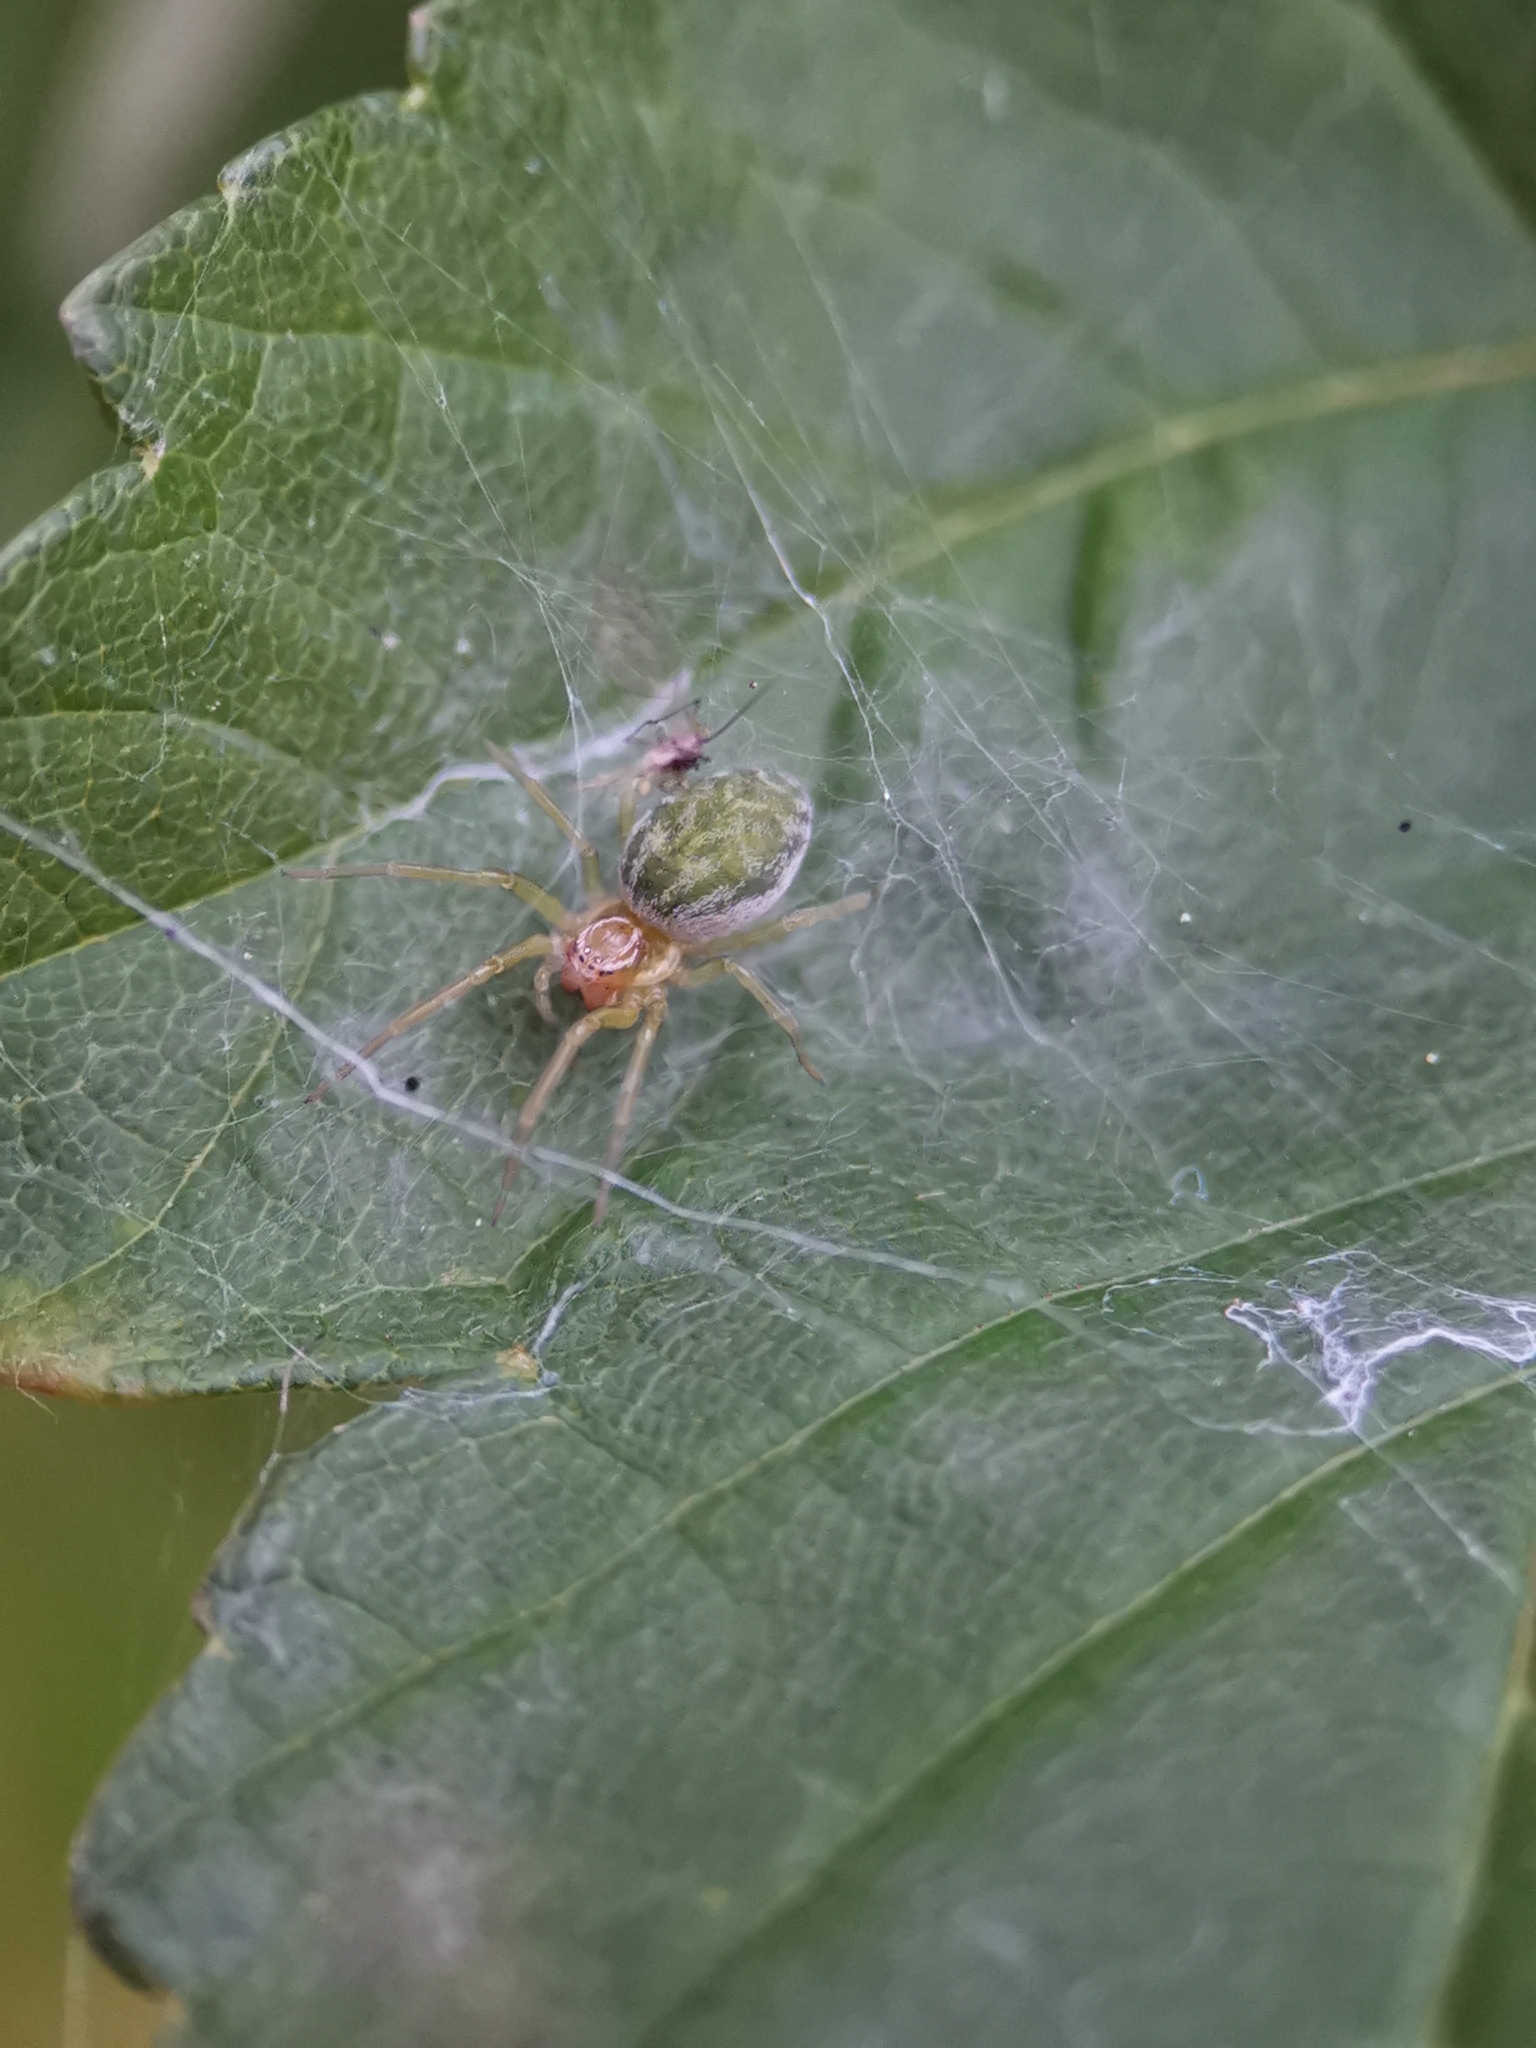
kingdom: Animalia
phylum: Arthropoda
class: Arachnida
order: Araneae
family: Dictynidae
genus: Nigma
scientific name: Nigma walckenaeri
